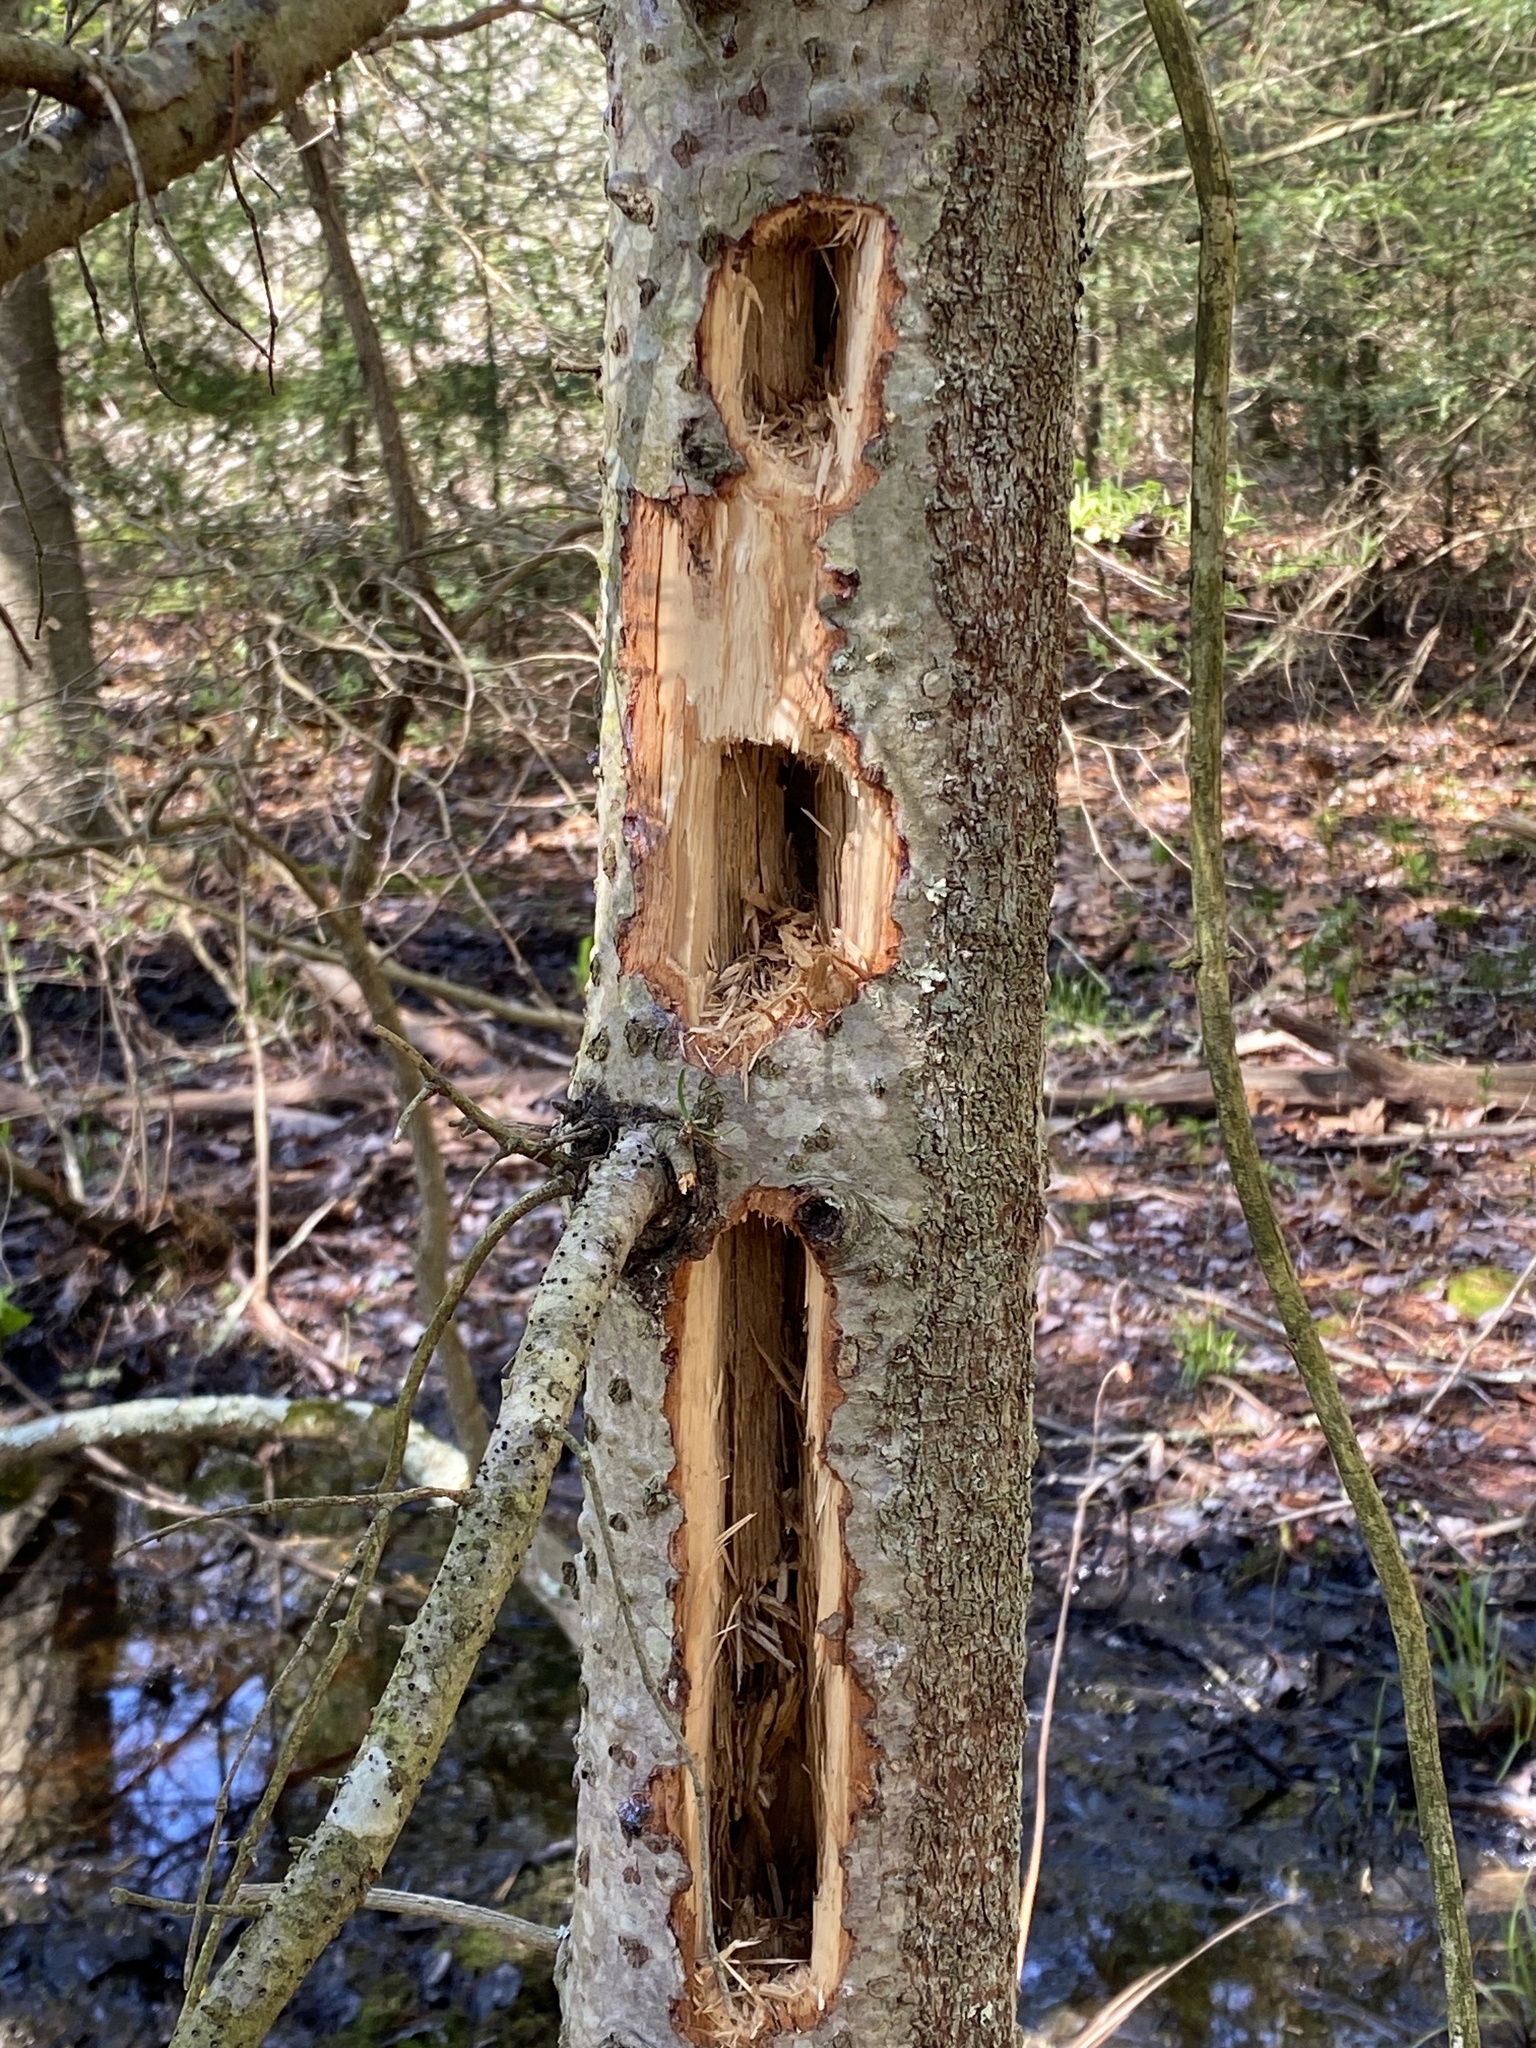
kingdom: Animalia
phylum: Chordata
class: Aves
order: Piciformes
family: Picidae
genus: Dryocopus
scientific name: Dryocopus pileatus
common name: Pileated woodpecker
